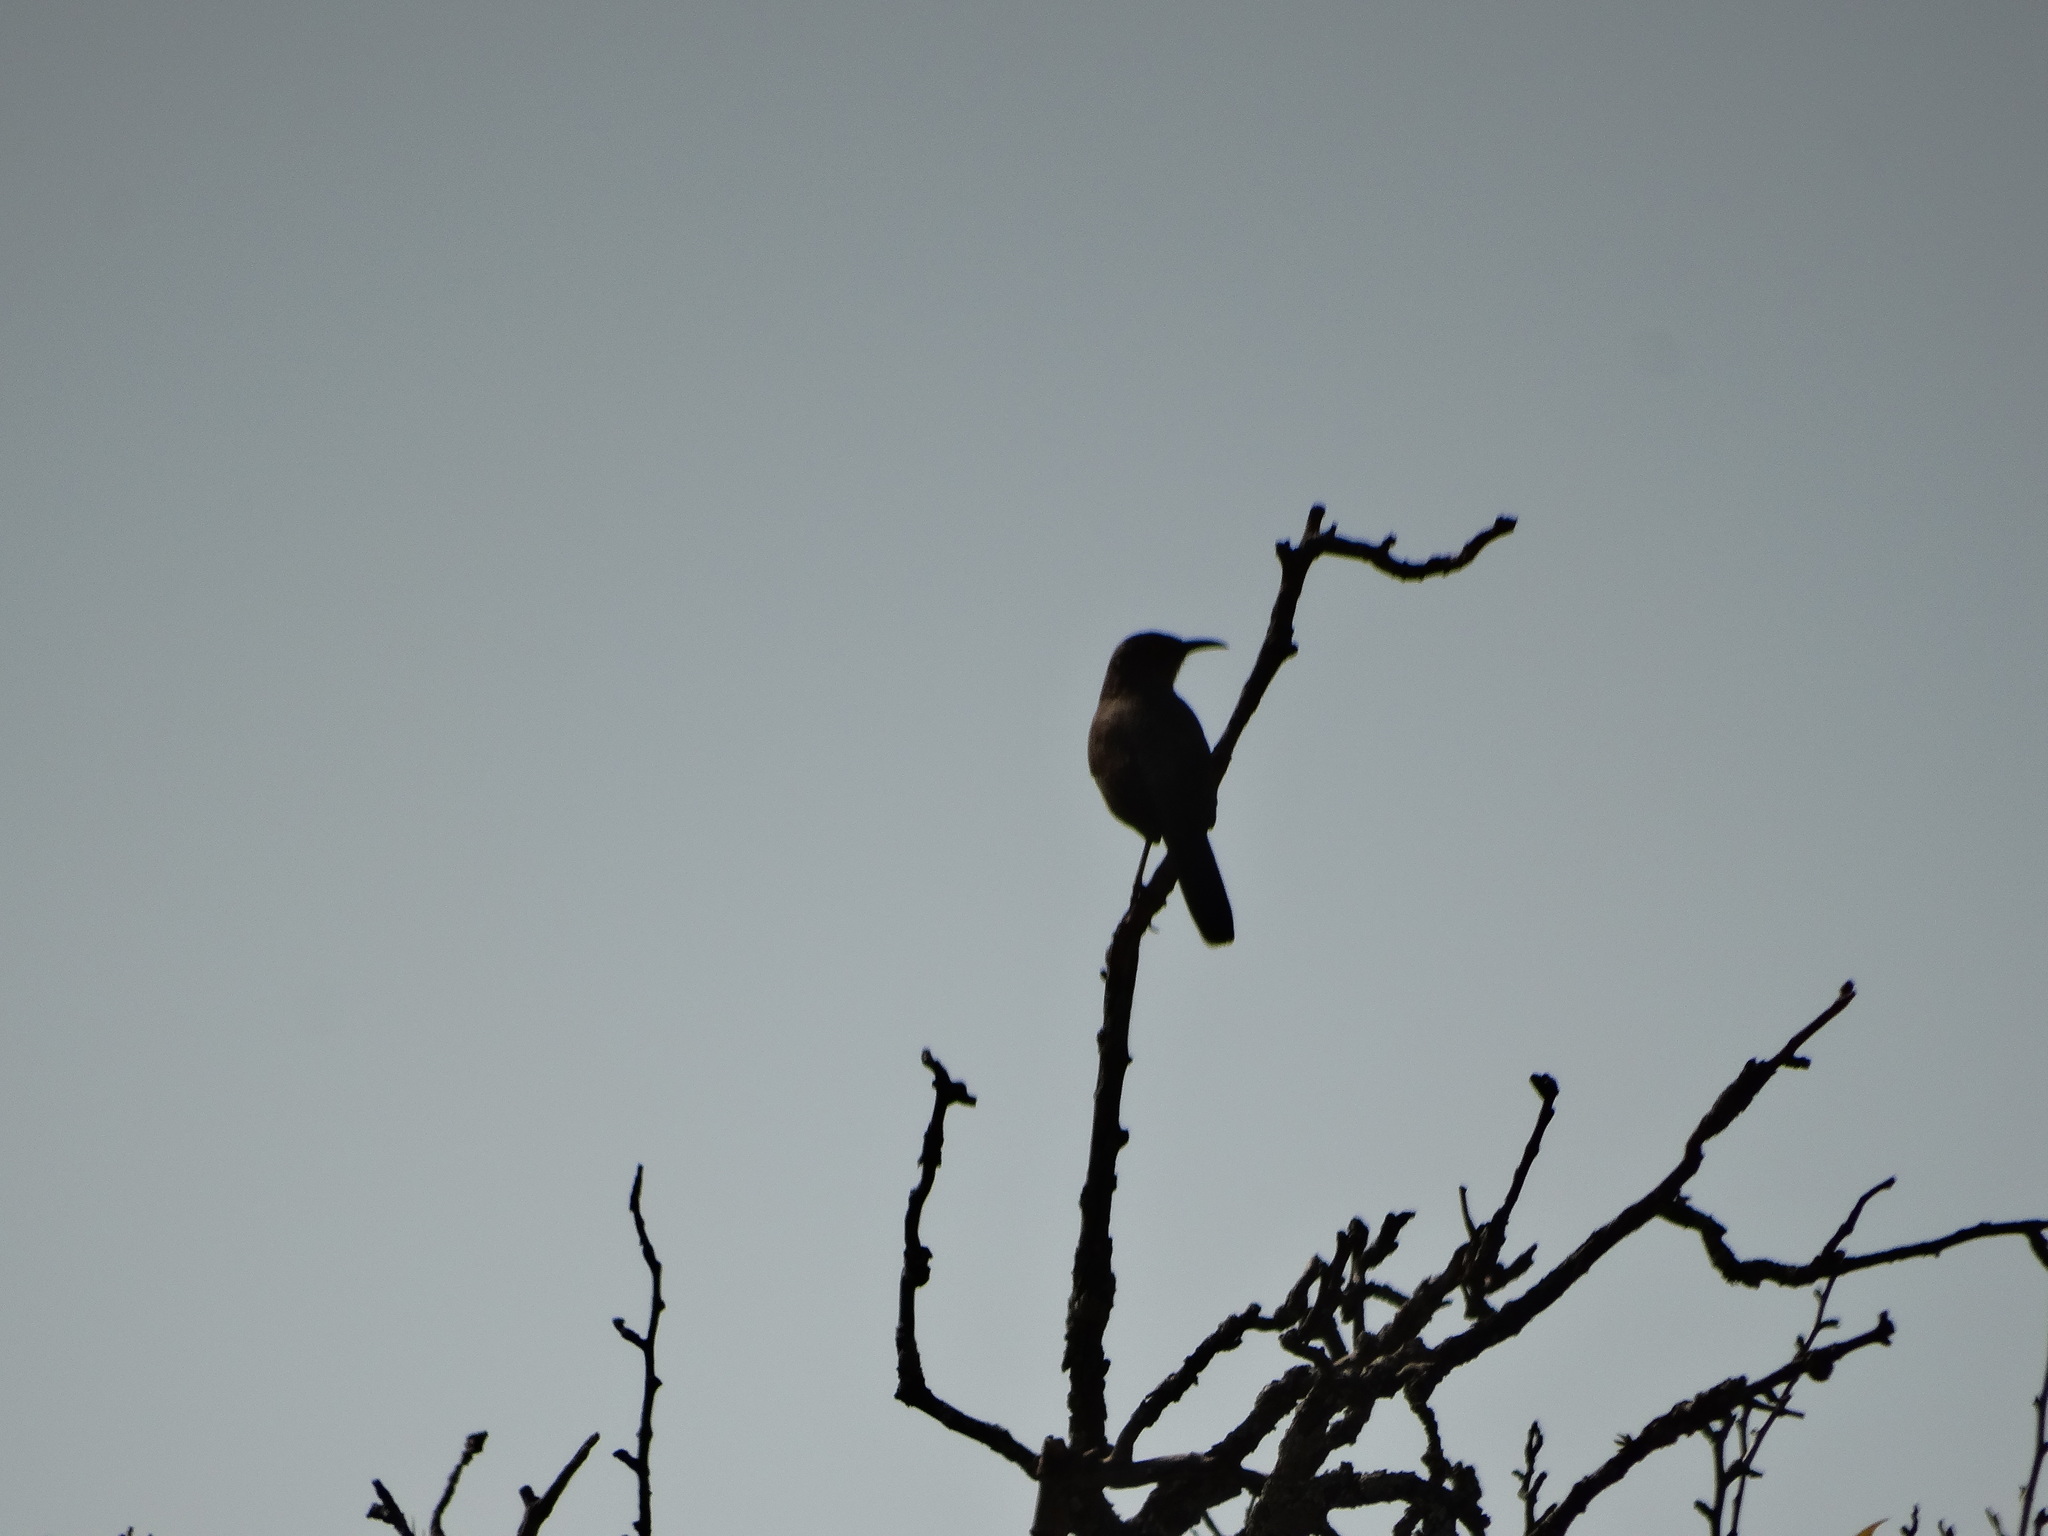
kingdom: Animalia
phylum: Chordata
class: Aves
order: Passeriformes
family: Mimidae
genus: Toxostoma
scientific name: Toxostoma curvirostre
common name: Curve-billed thrasher
